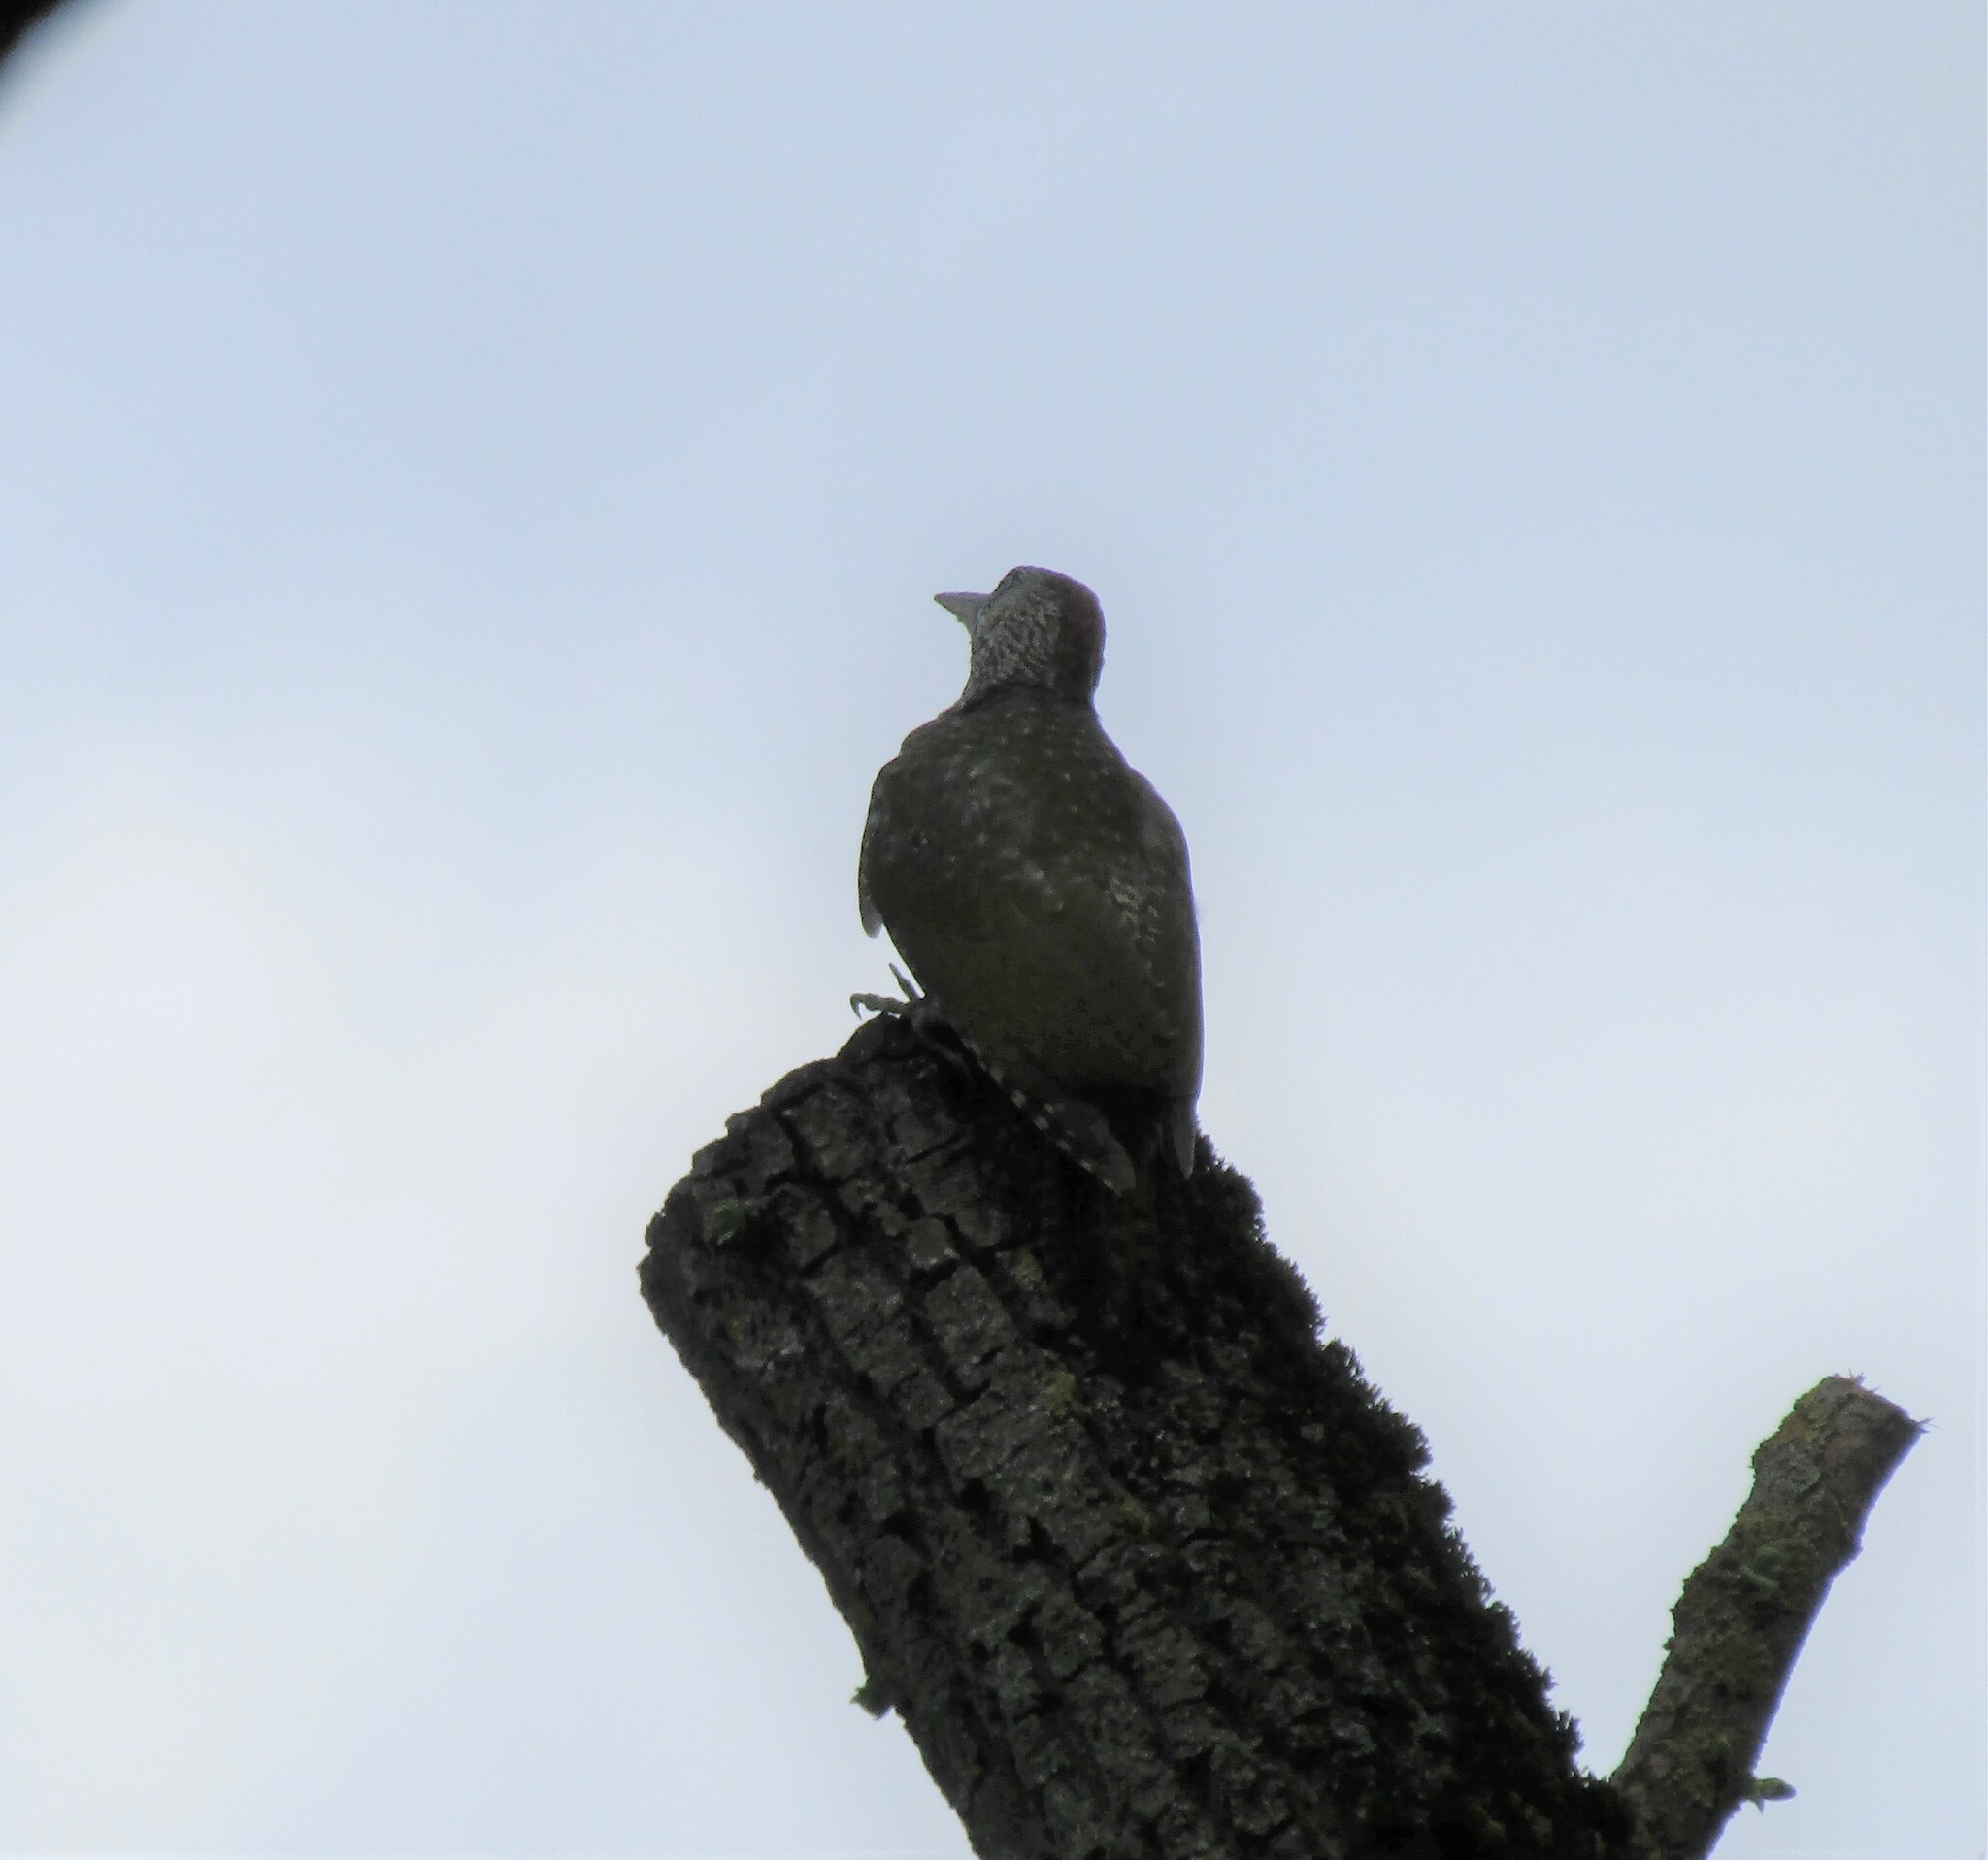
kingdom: Animalia
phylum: Chordata
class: Aves
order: Piciformes
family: Picidae
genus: Picus
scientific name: Picus viridis
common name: European green woodpecker
